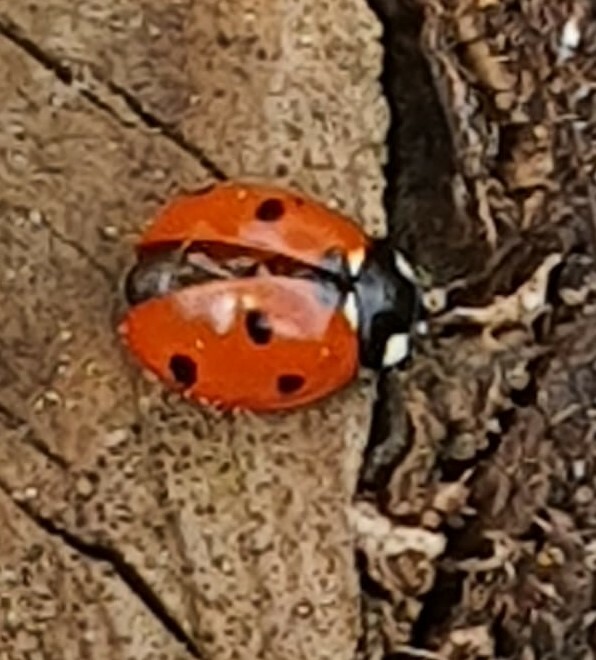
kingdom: Animalia
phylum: Arthropoda
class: Insecta
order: Coleoptera
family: Coccinellidae
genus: Coccinella
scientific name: Coccinella septempunctata
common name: Sevenspotted lady beetle
